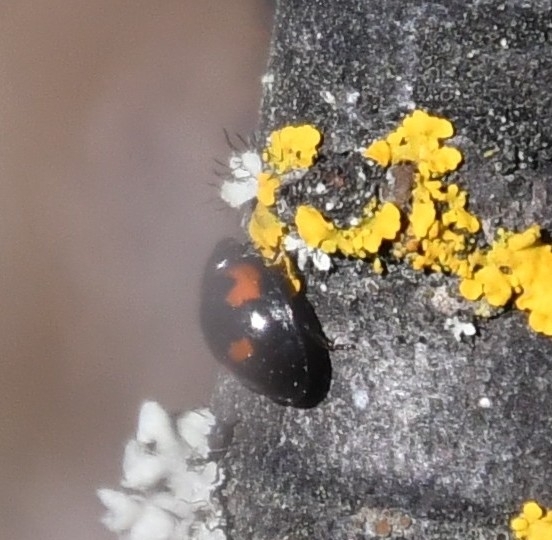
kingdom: Animalia
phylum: Arthropoda
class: Insecta
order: Coleoptera
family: Coccinellidae
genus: Brumus
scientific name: Brumus quadripustulatus
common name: Ladybird beetle
